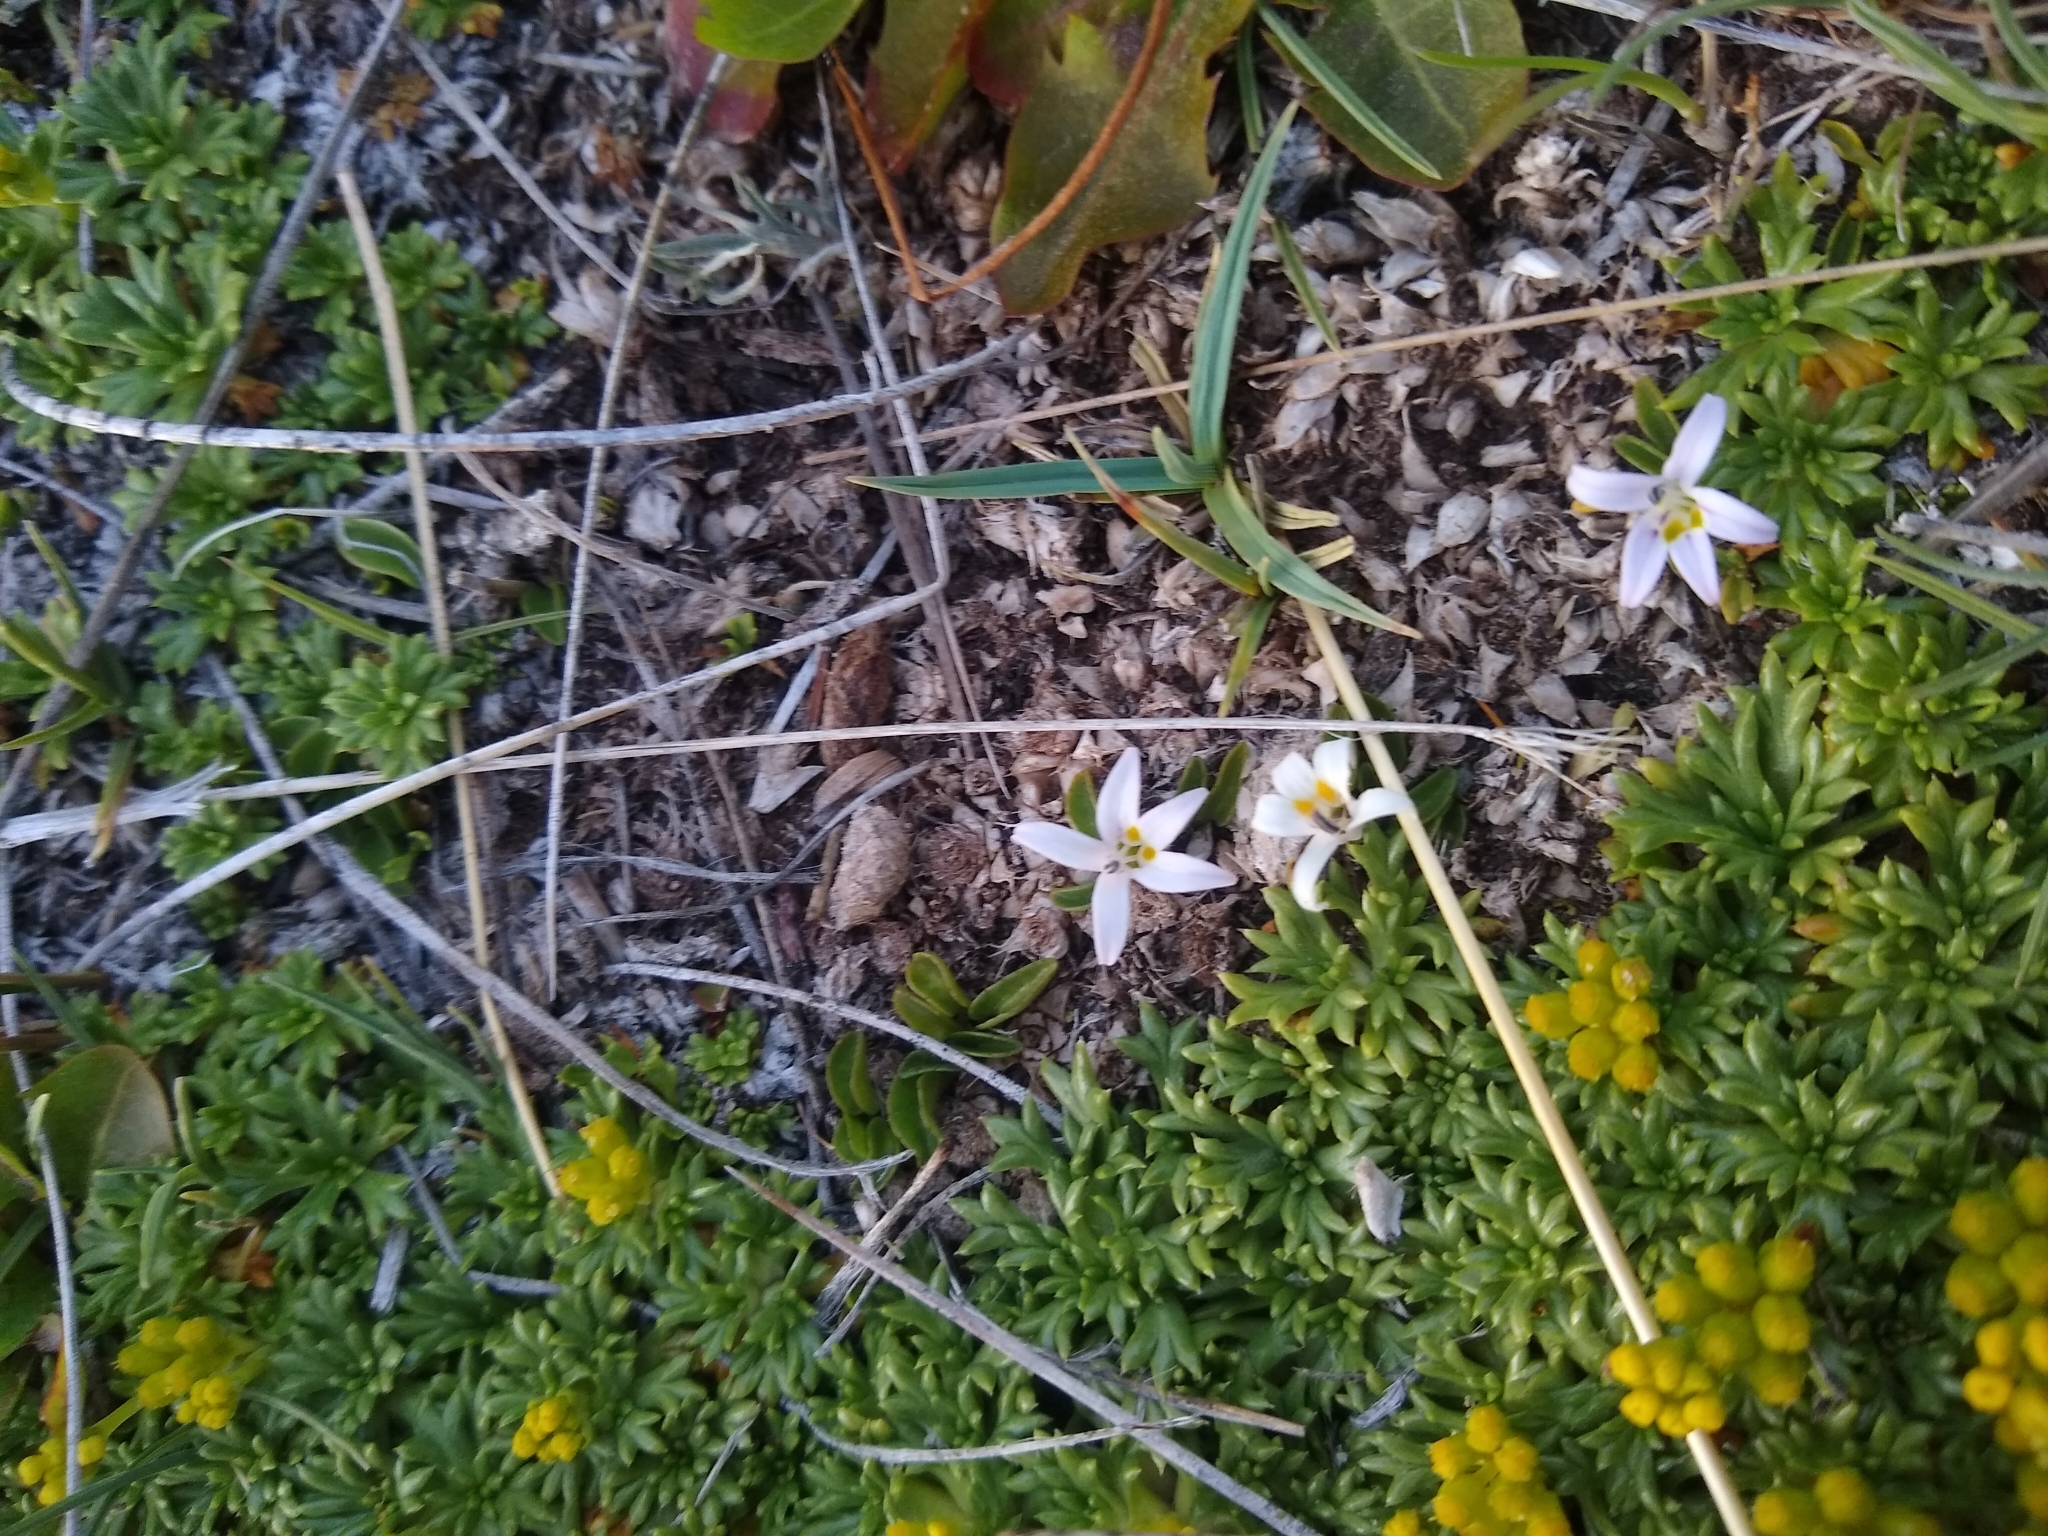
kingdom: Plantae
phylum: Tracheophyta
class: Magnoliopsida
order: Asterales
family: Campanulaceae
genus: Lobelia
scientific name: Lobelia oligophylla
